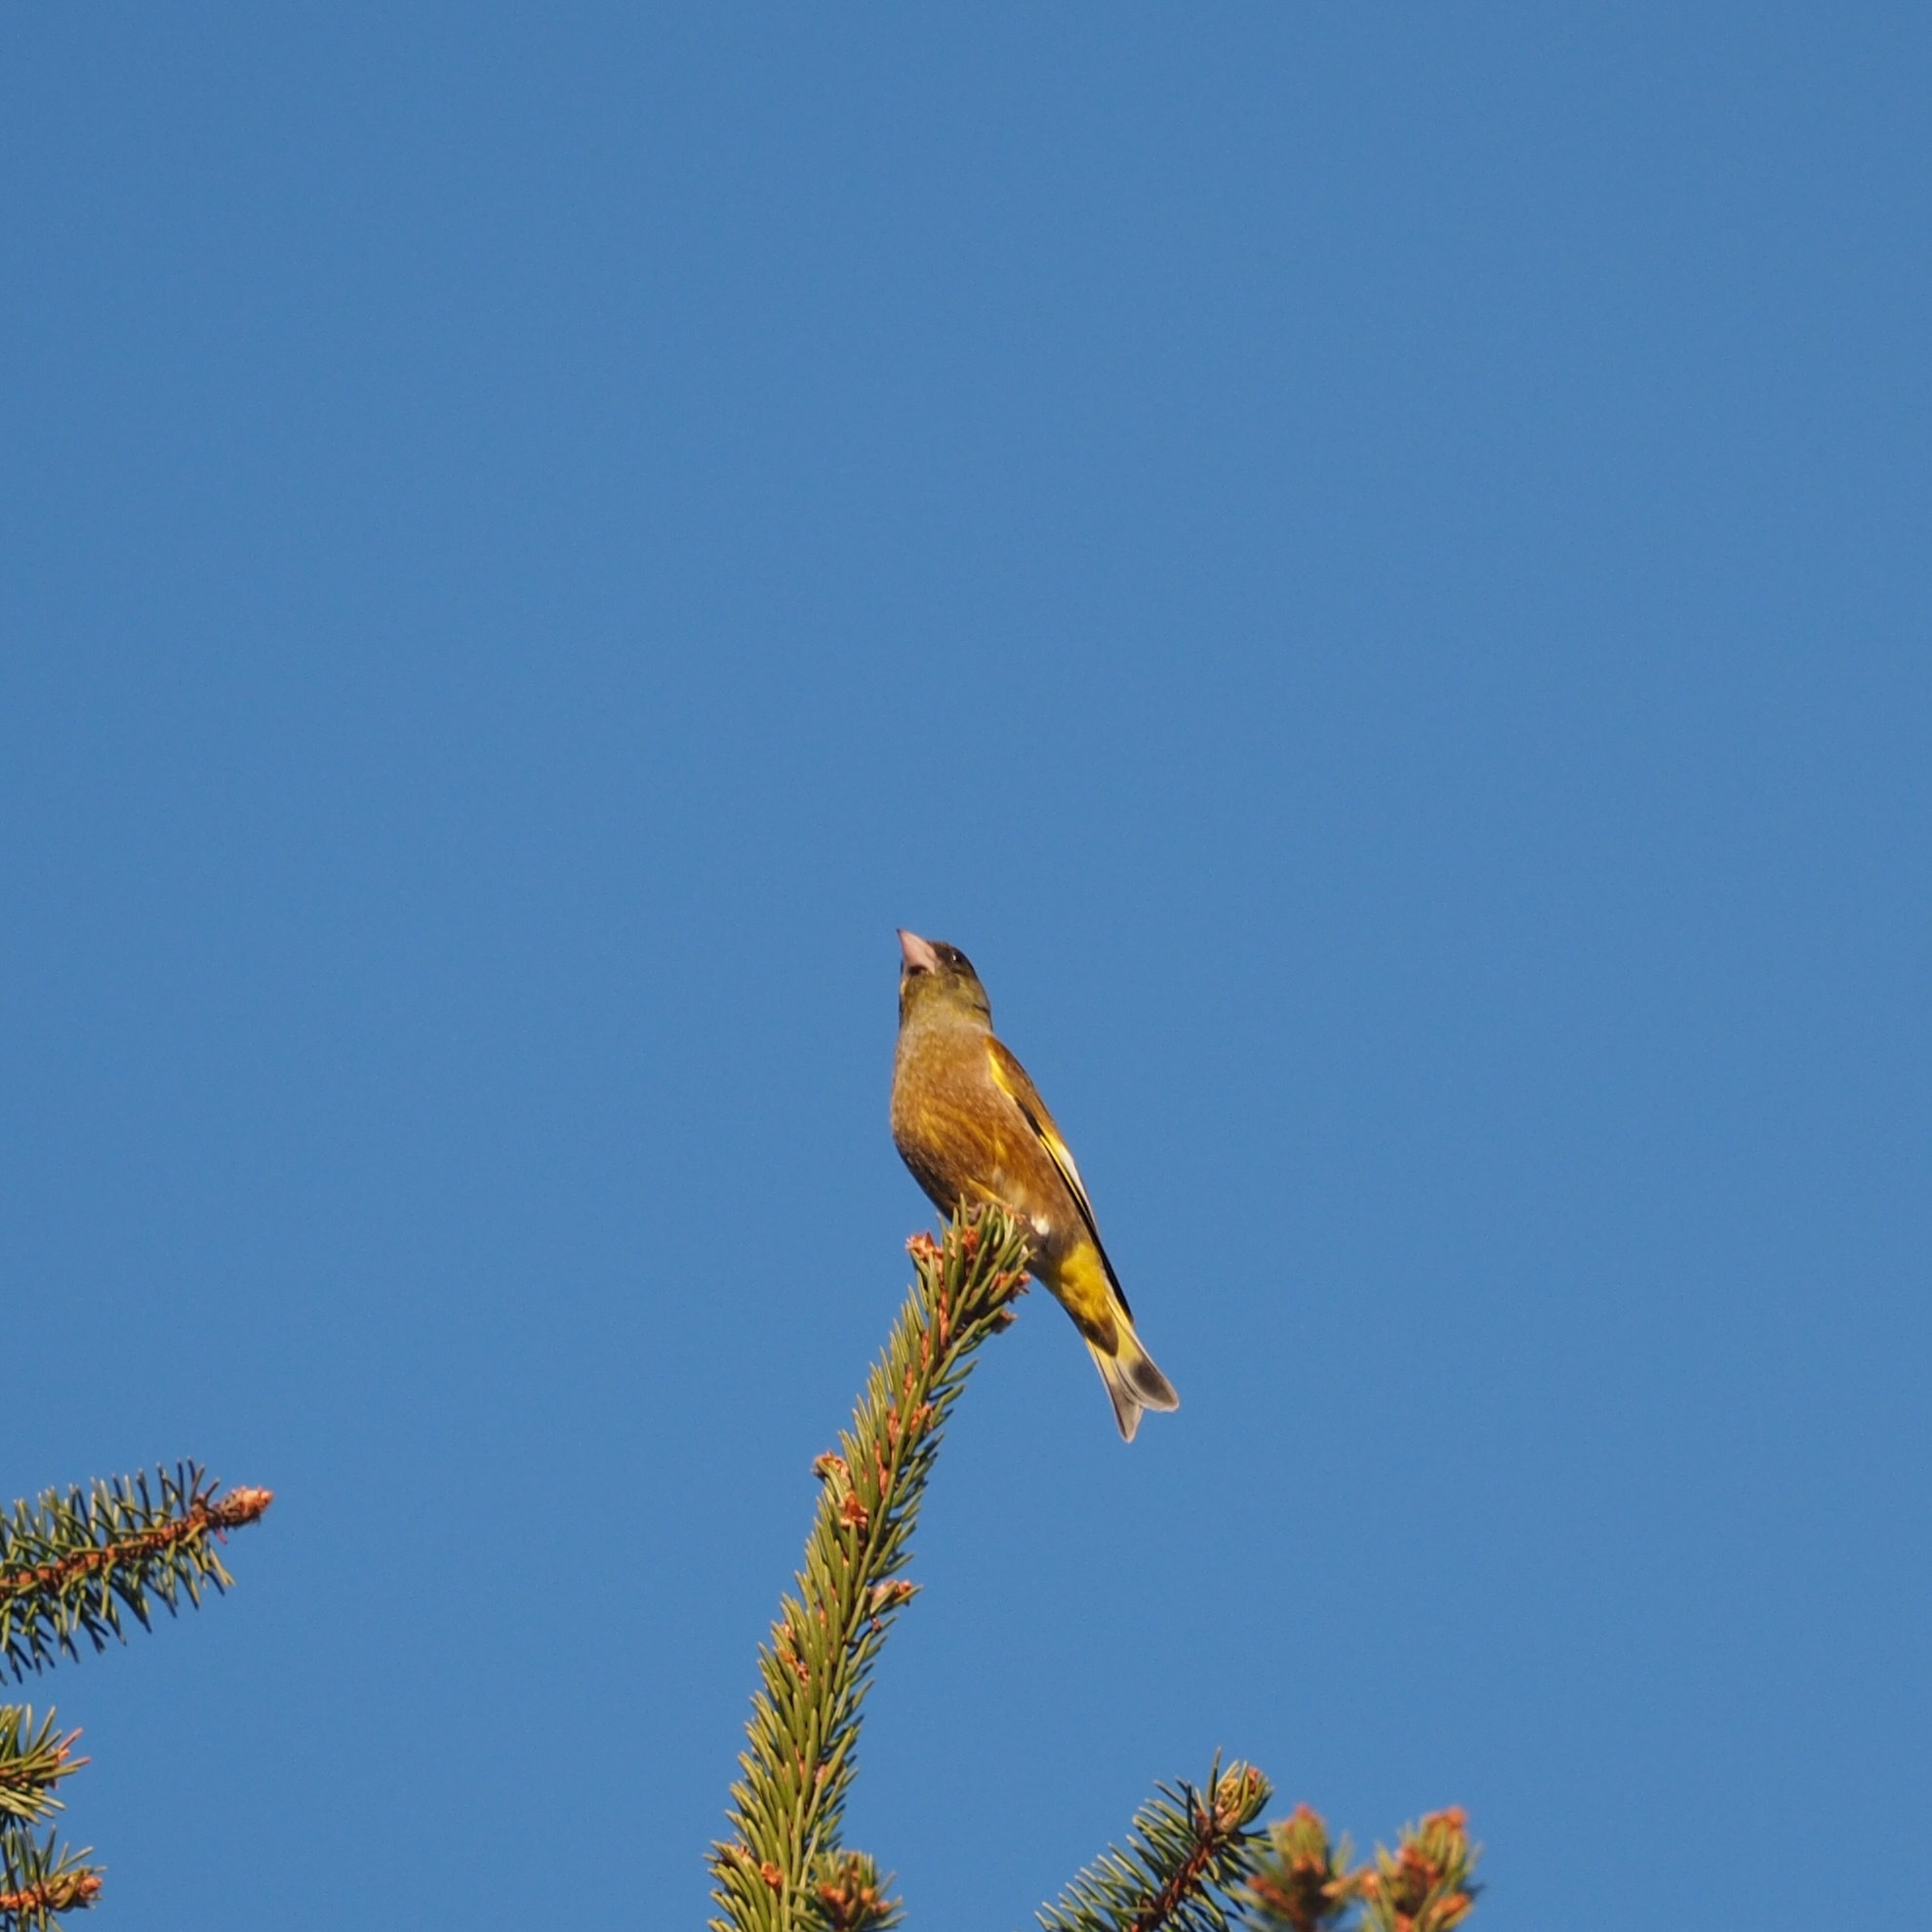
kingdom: Plantae
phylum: Tracheophyta
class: Liliopsida
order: Poales
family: Poaceae
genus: Chloris
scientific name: Chloris sinica
